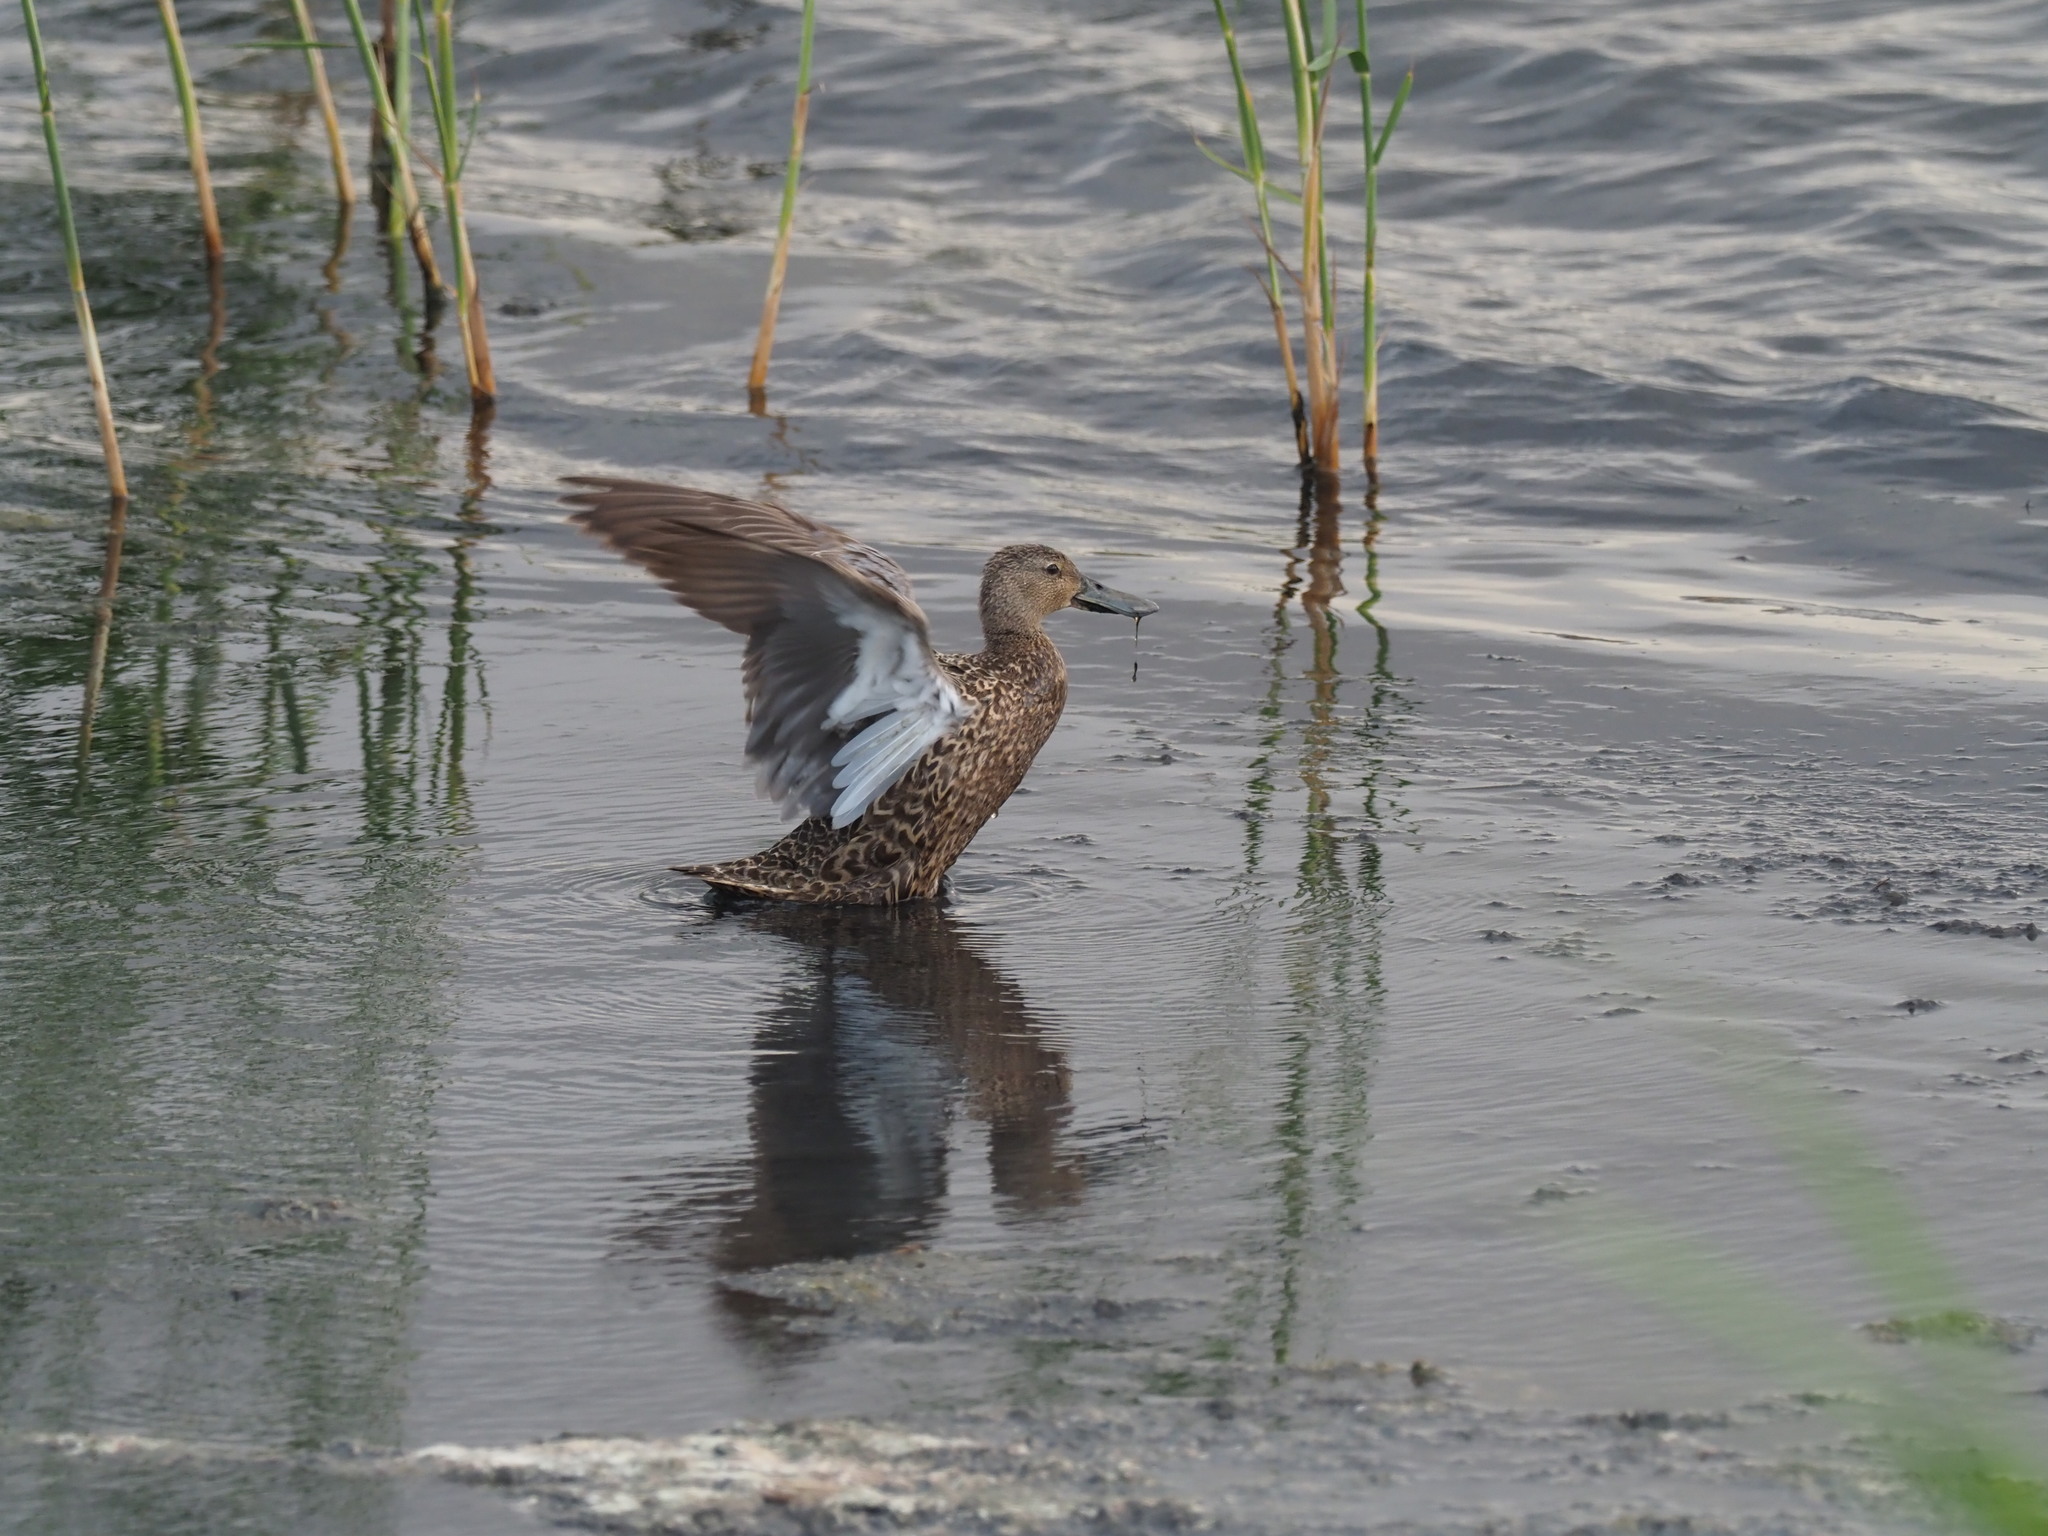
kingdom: Animalia
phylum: Chordata
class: Aves
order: Anseriformes
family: Anatidae
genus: Spatula
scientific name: Spatula smithii
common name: Cape shoveler
